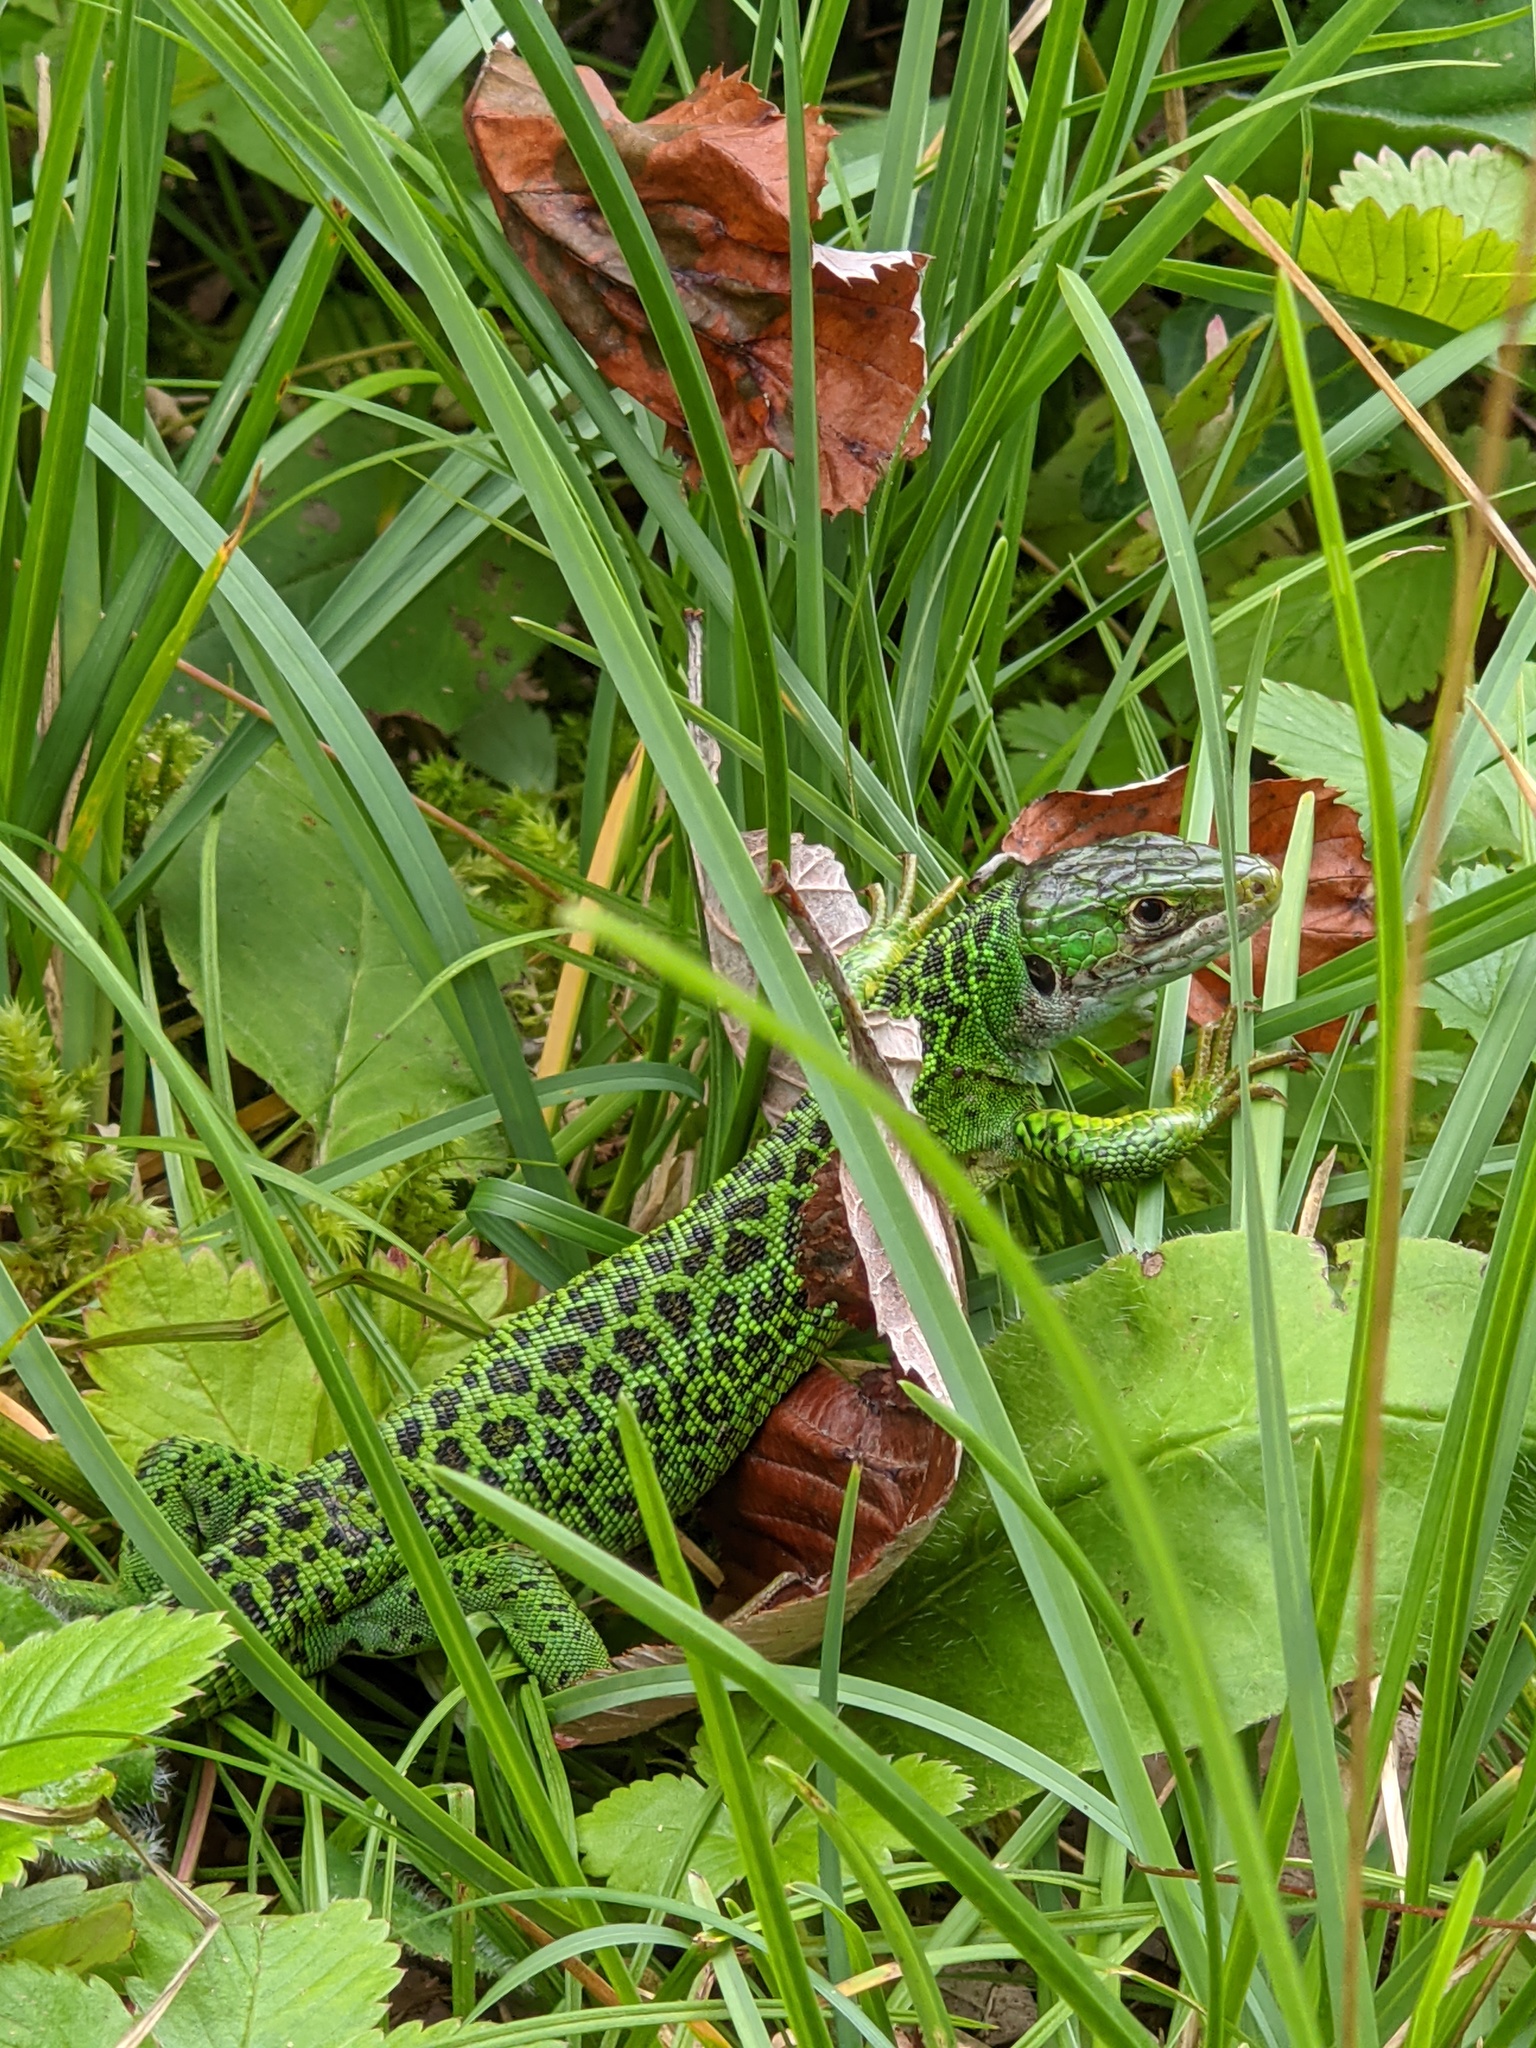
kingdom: Animalia
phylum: Chordata
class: Squamata
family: Lacertidae
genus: Lacerta
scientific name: Lacerta bilineata
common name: Western green lizard
